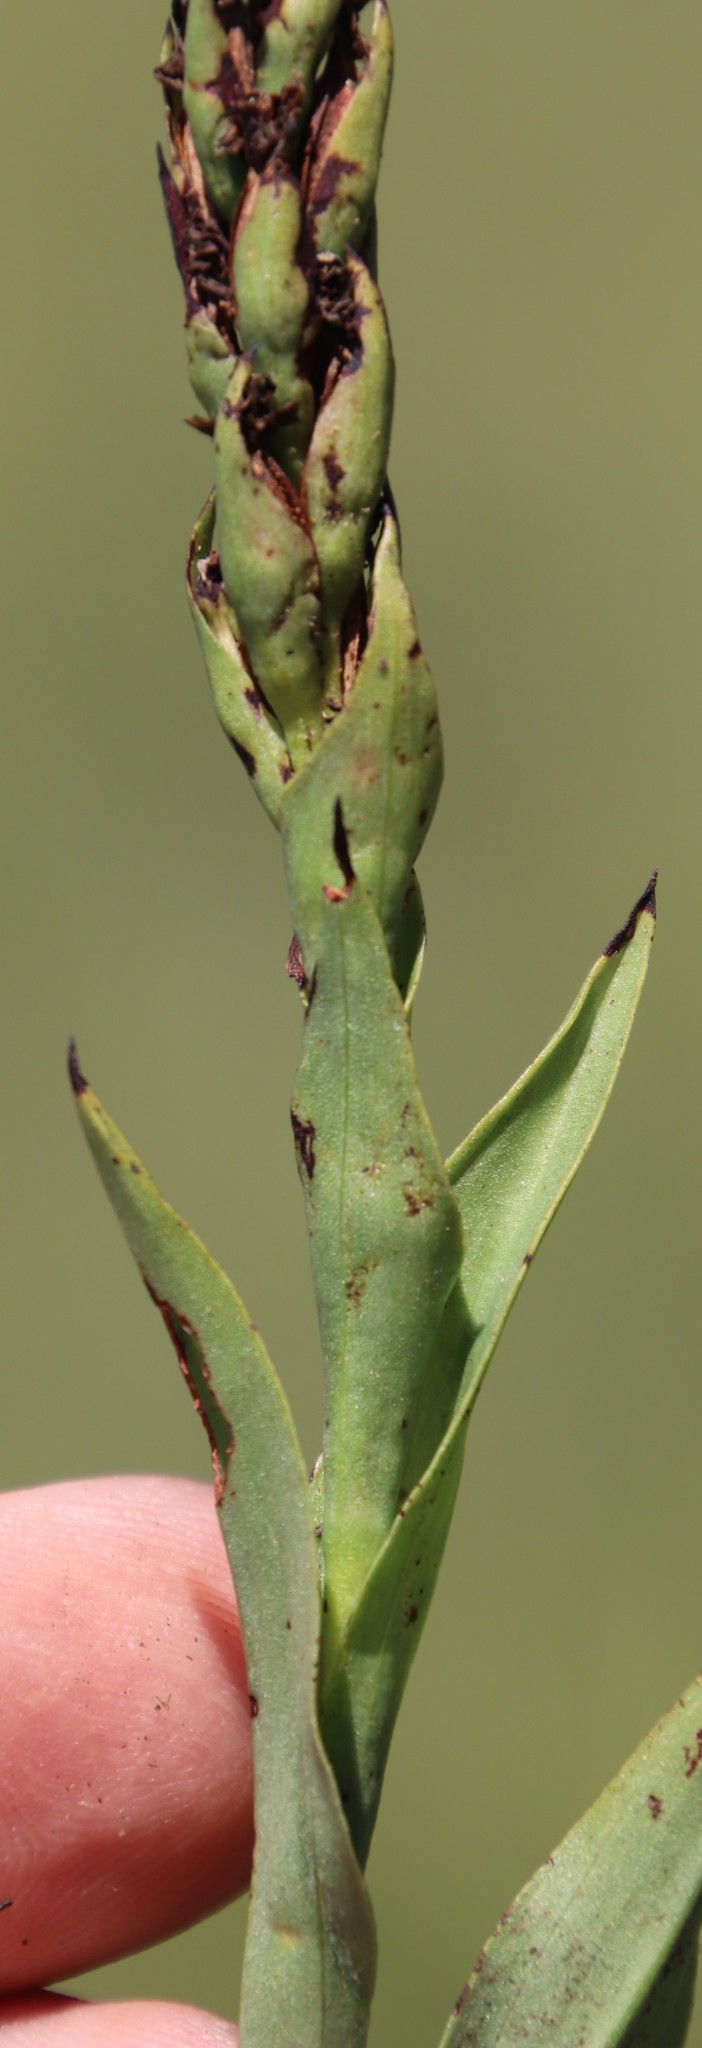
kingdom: Plantae
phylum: Tracheophyta
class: Liliopsida
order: Asparagales
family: Orchidaceae
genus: Corycium
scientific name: Corycium nigrescens
